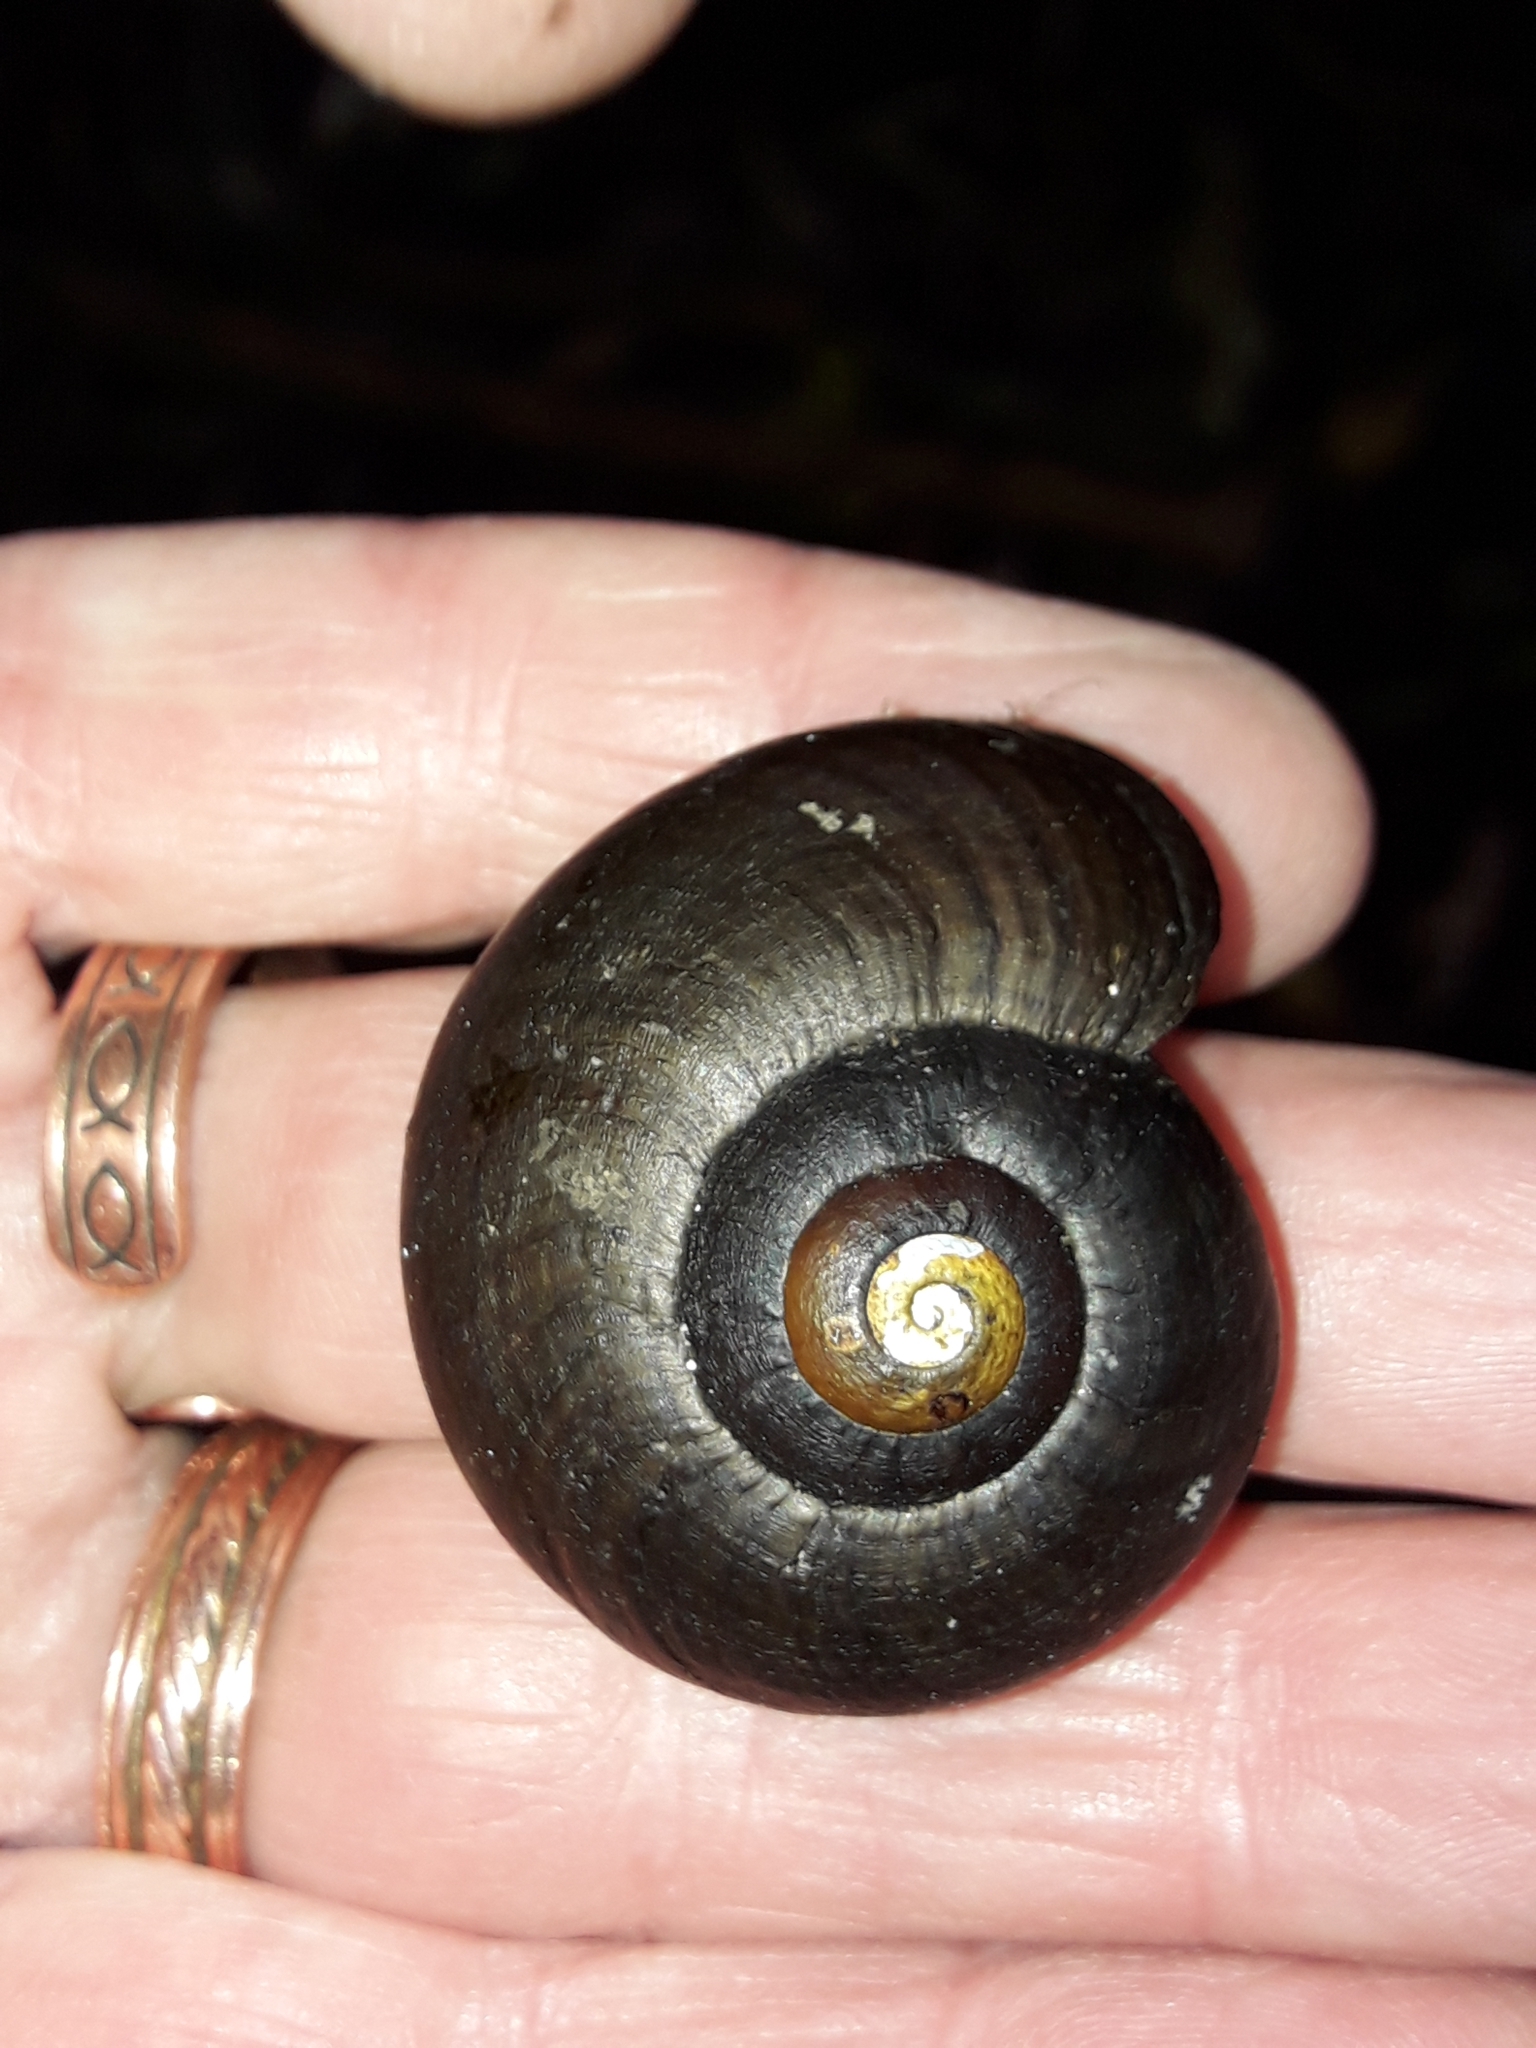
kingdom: Animalia
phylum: Mollusca
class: Gastropoda
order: Stylommatophora
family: Rhytididae
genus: Powelliphanta
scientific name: Powelliphanta traversi
